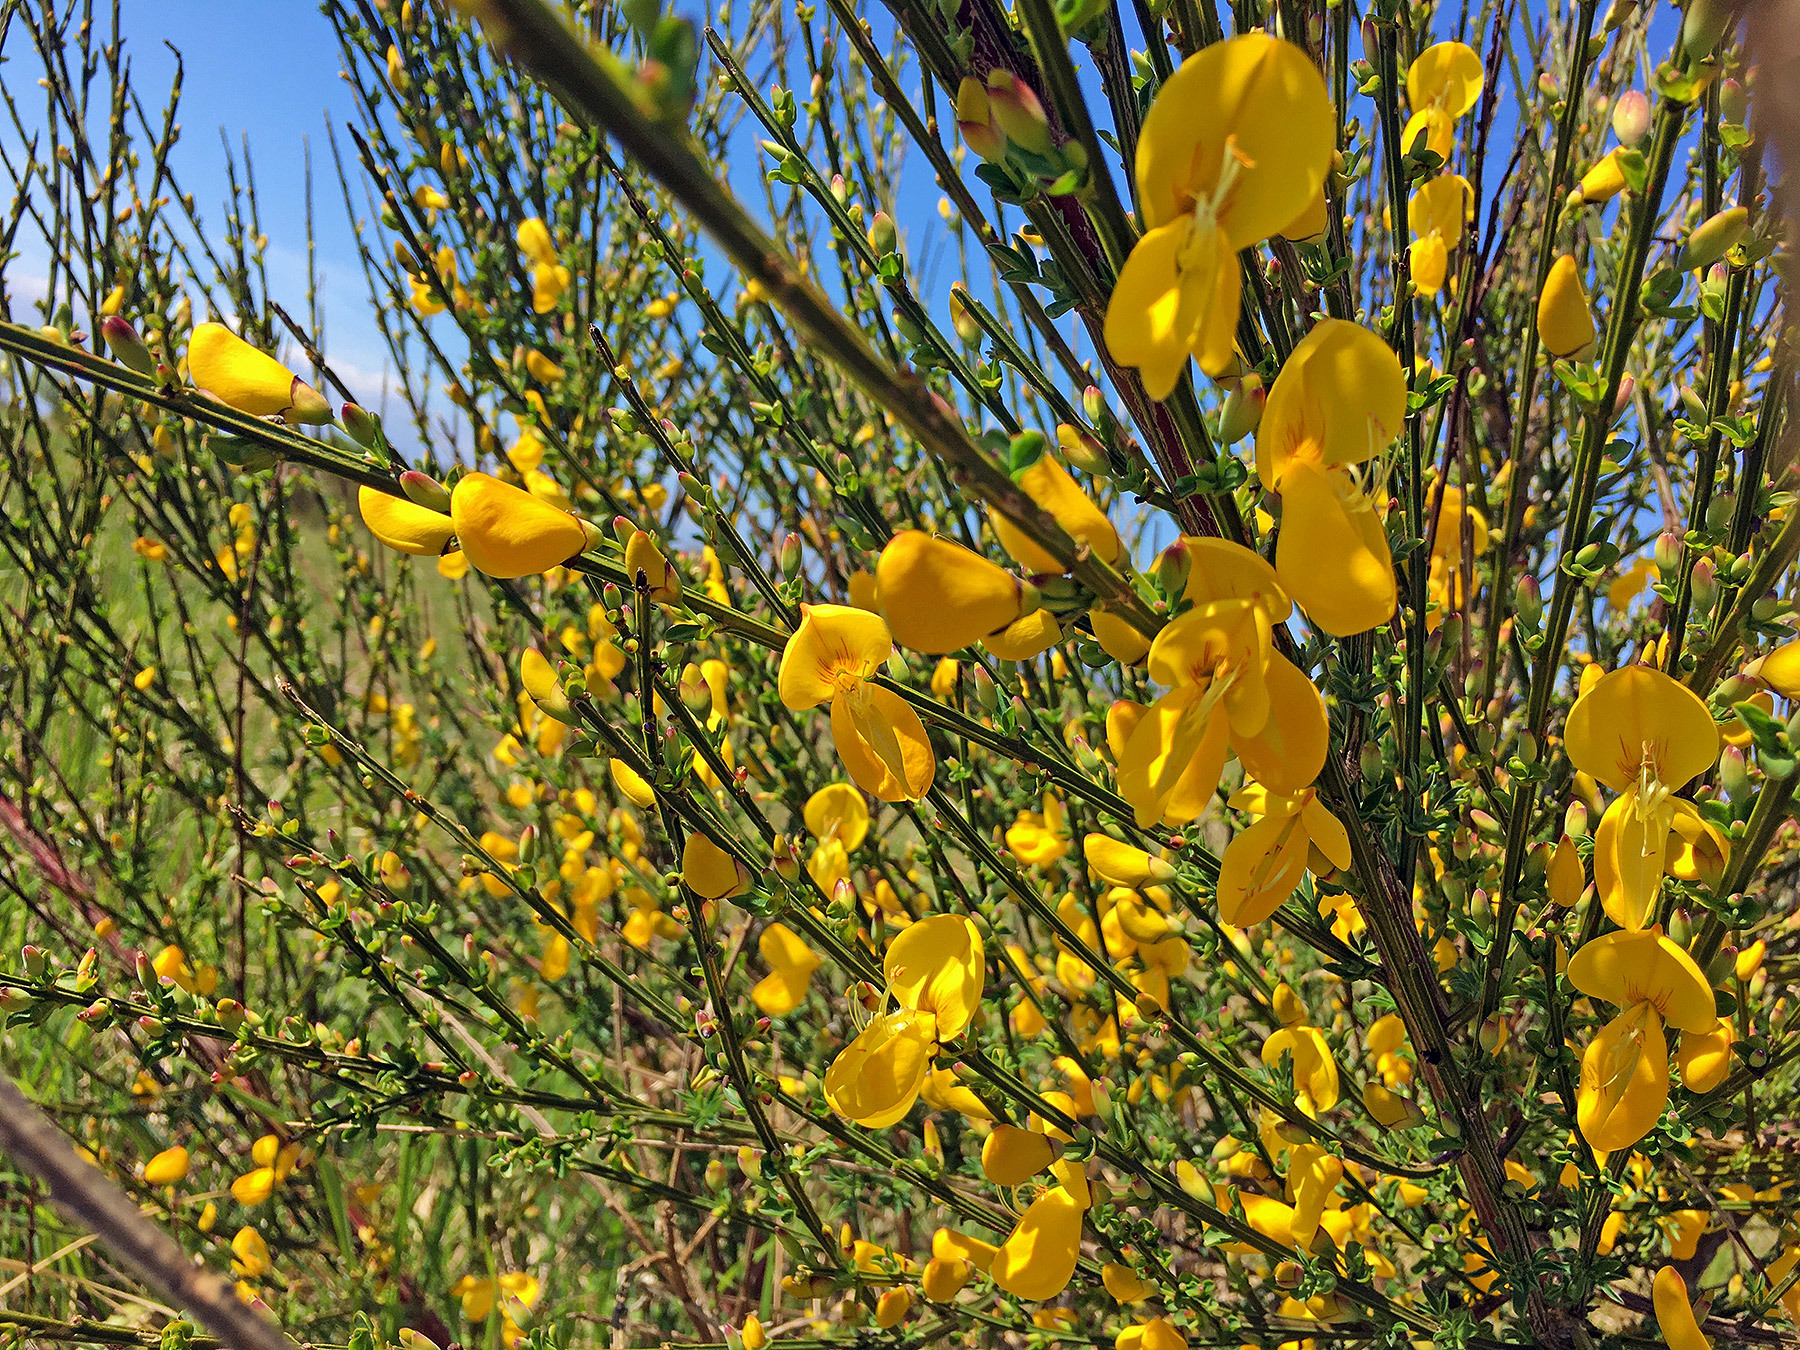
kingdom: Plantae
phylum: Tracheophyta
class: Magnoliopsida
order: Fabales
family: Fabaceae
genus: Cytisus
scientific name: Cytisus scoparius
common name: Scotch broom
